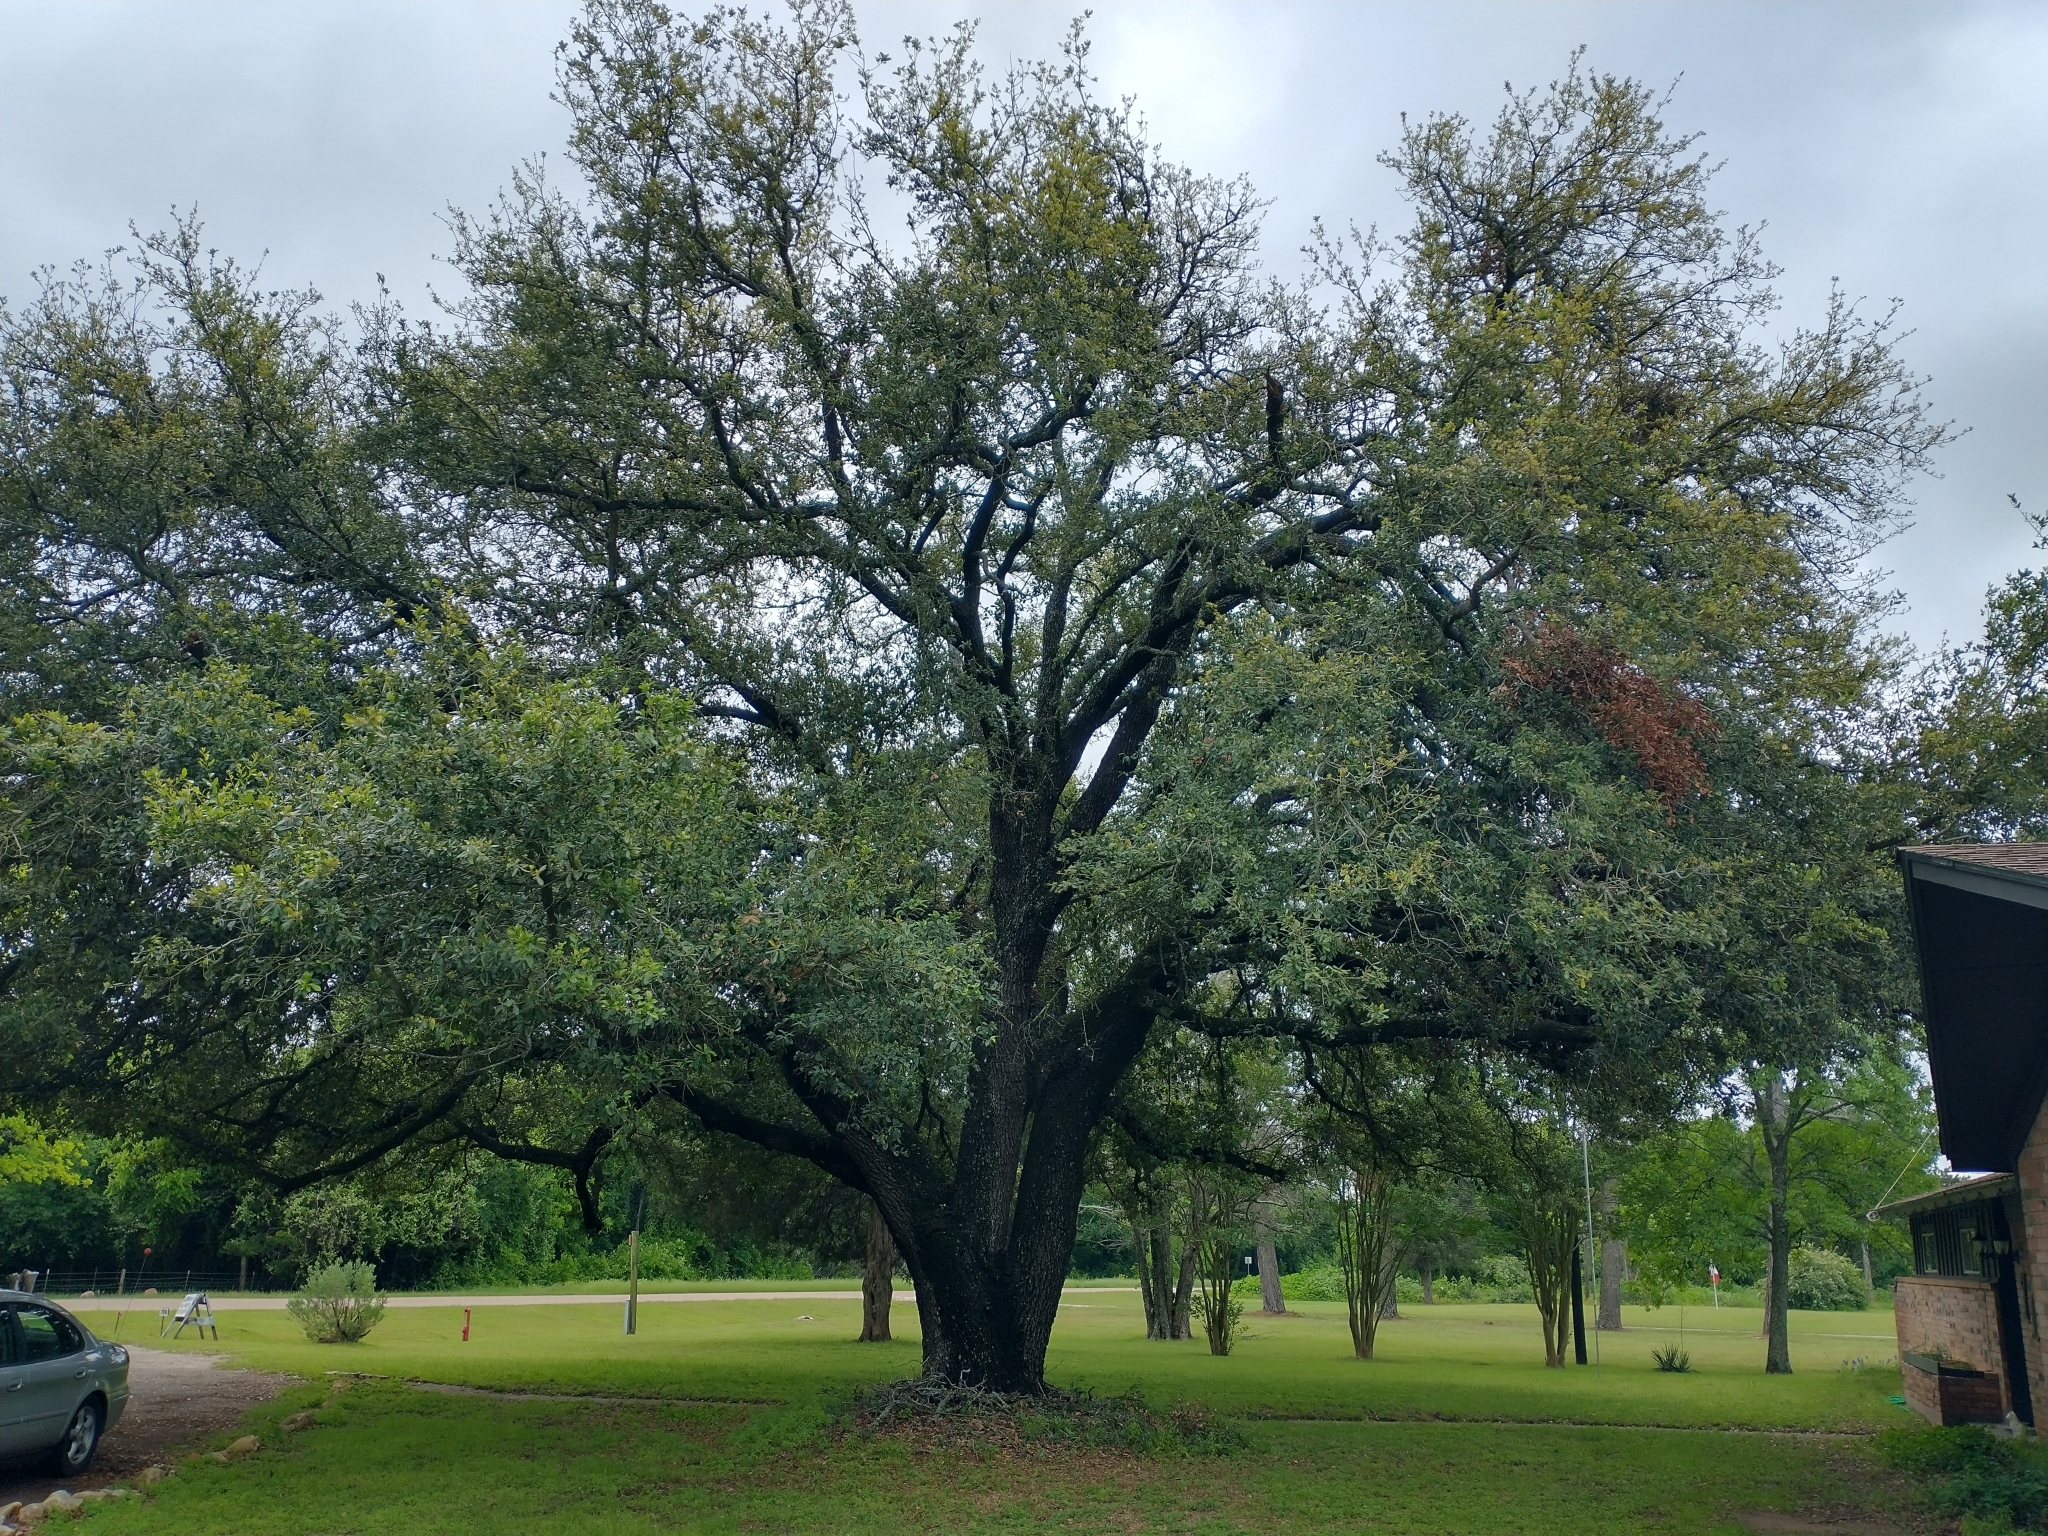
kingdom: Plantae
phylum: Tracheophyta
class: Magnoliopsida
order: Fagales
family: Fagaceae
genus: Quercus
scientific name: Quercus virginiana
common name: Southern live oak
